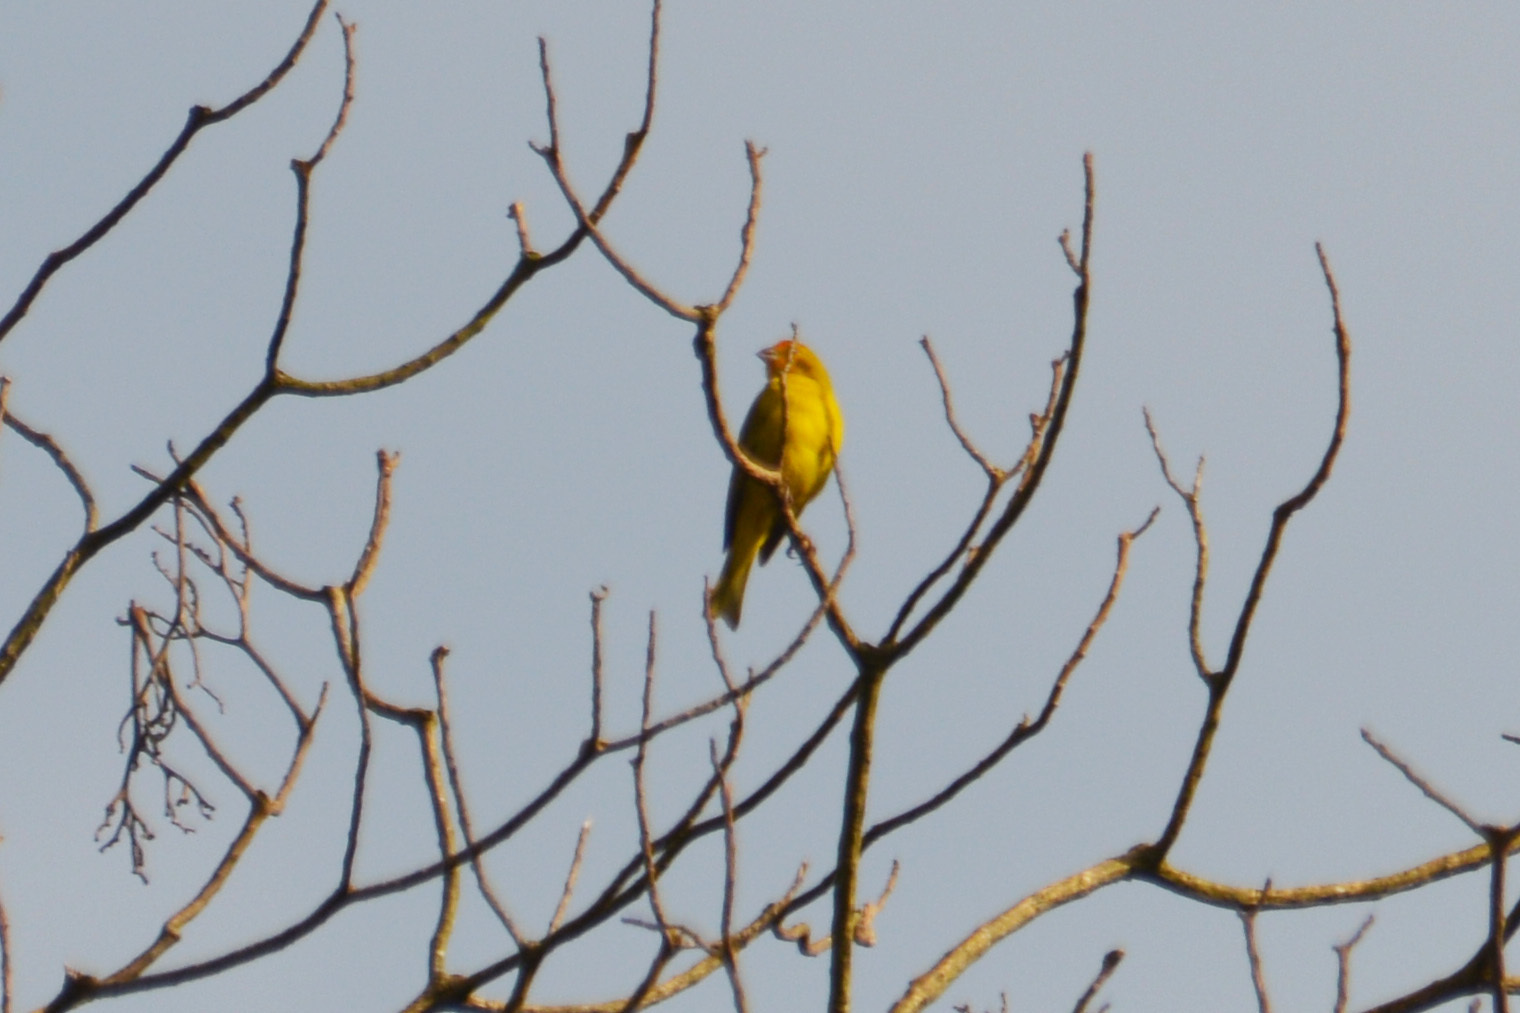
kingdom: Animalia
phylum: Chordata
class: Aves
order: Passeriformes
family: Thraupidae
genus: Sicalis
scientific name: Sicalis flaveola
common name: Saffron finch
